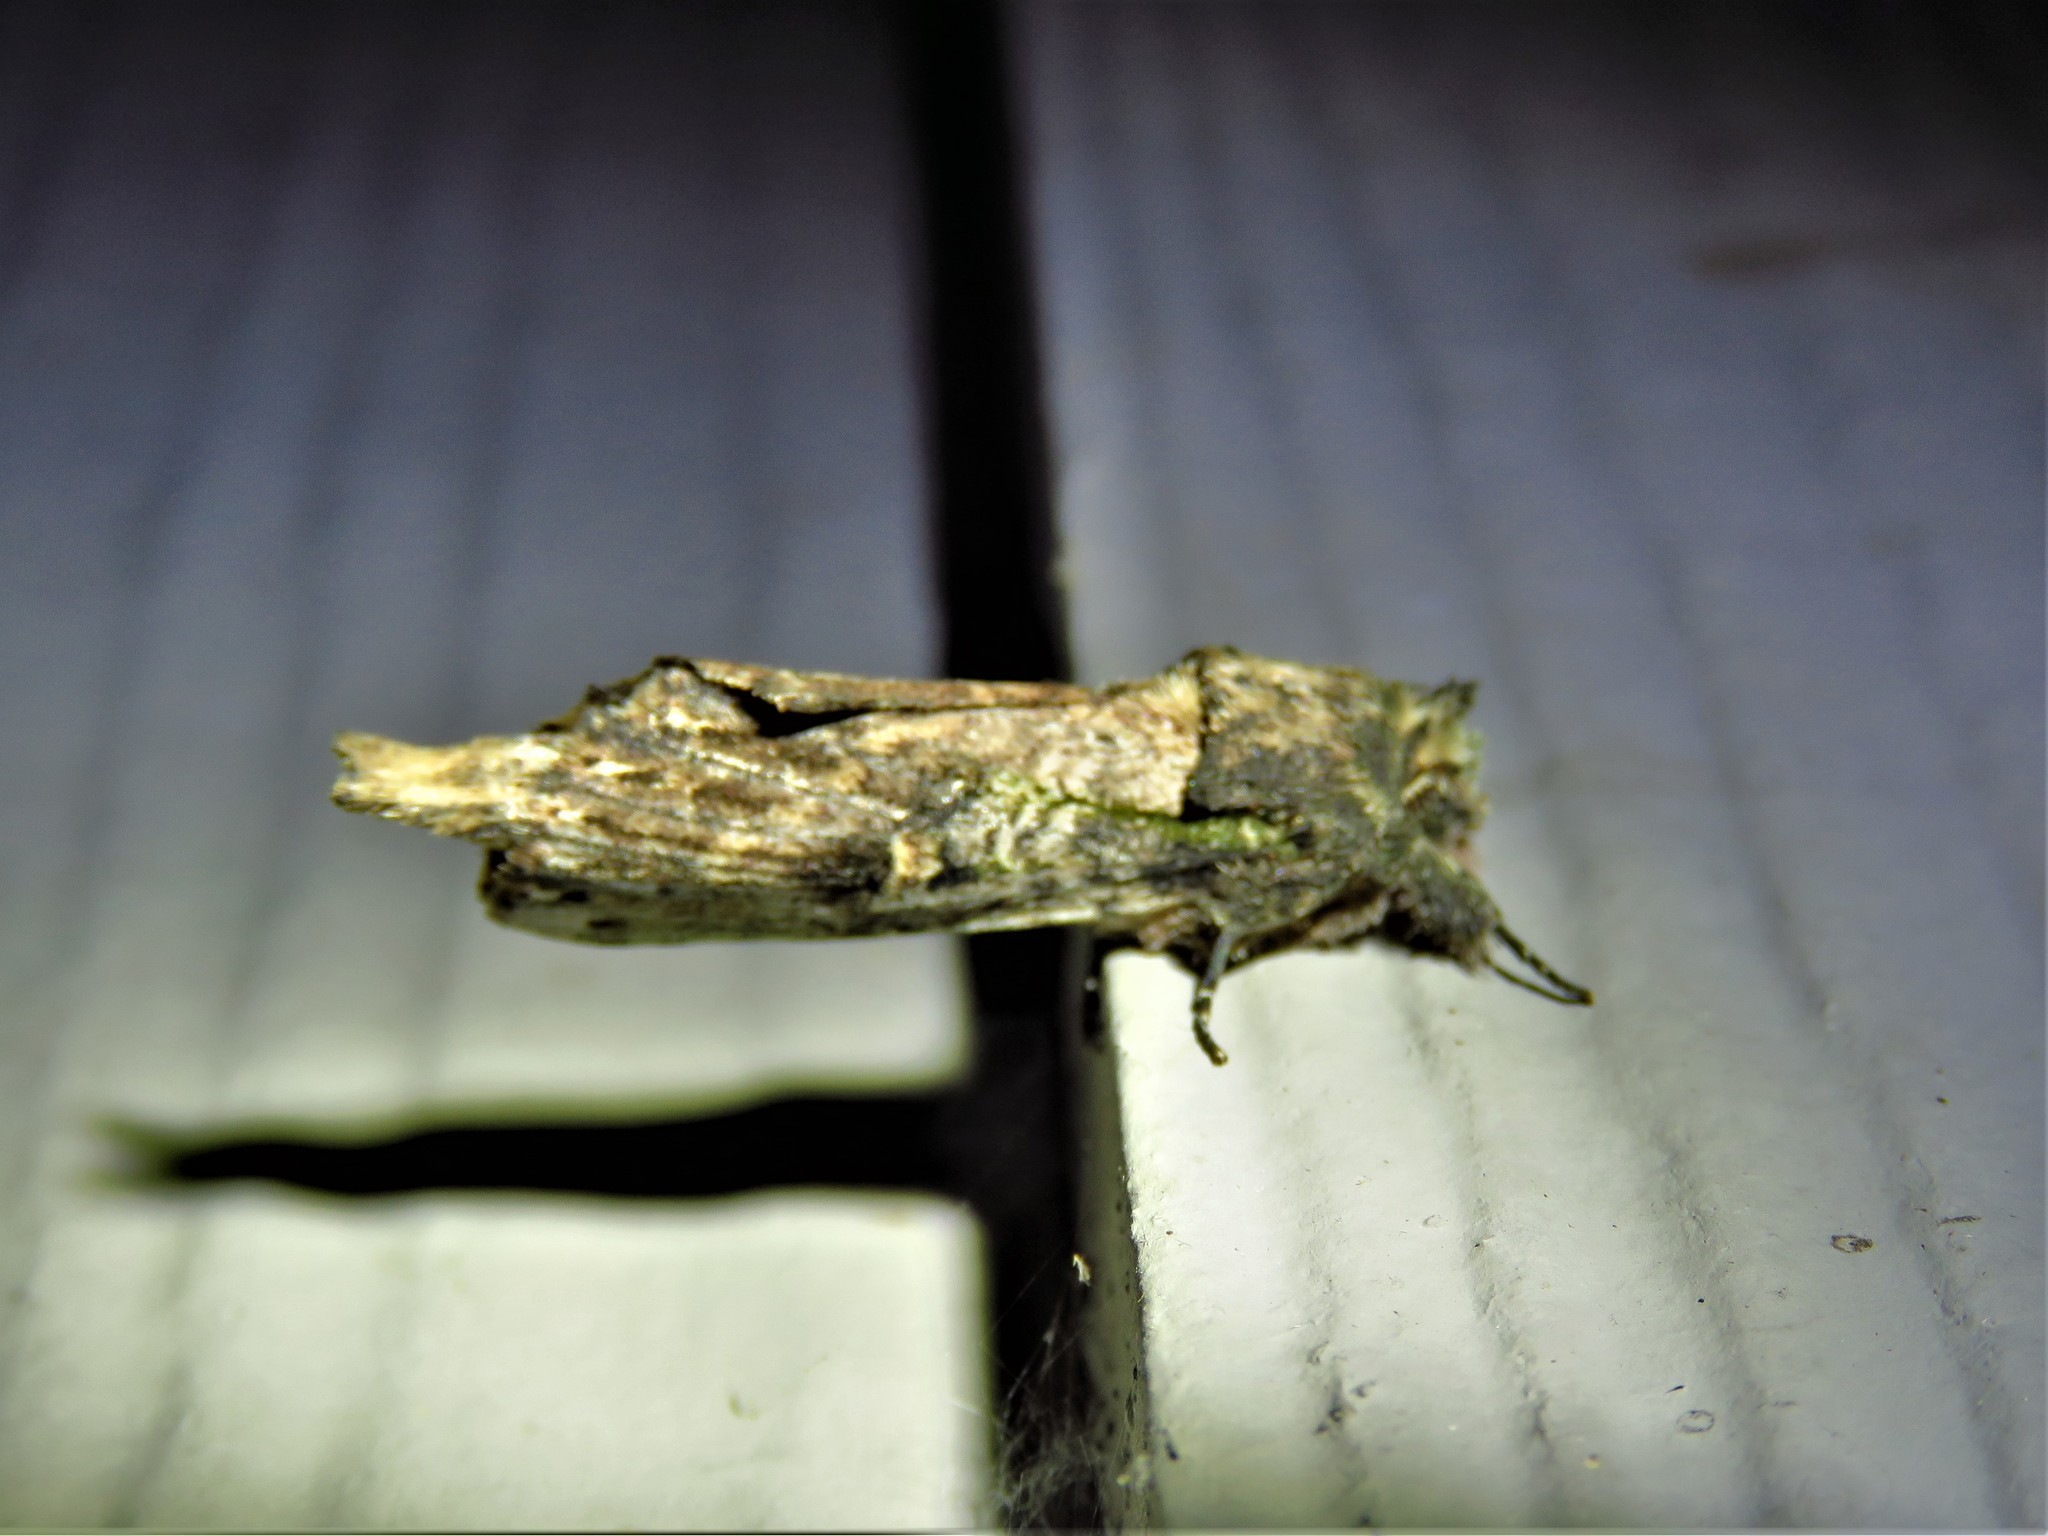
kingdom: Animalia
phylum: Arthropoda
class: Insecta
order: Lepidoptera
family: Notodontidae
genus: Schizura
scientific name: Schizura ipomaeae
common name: Morning-glory prominent
